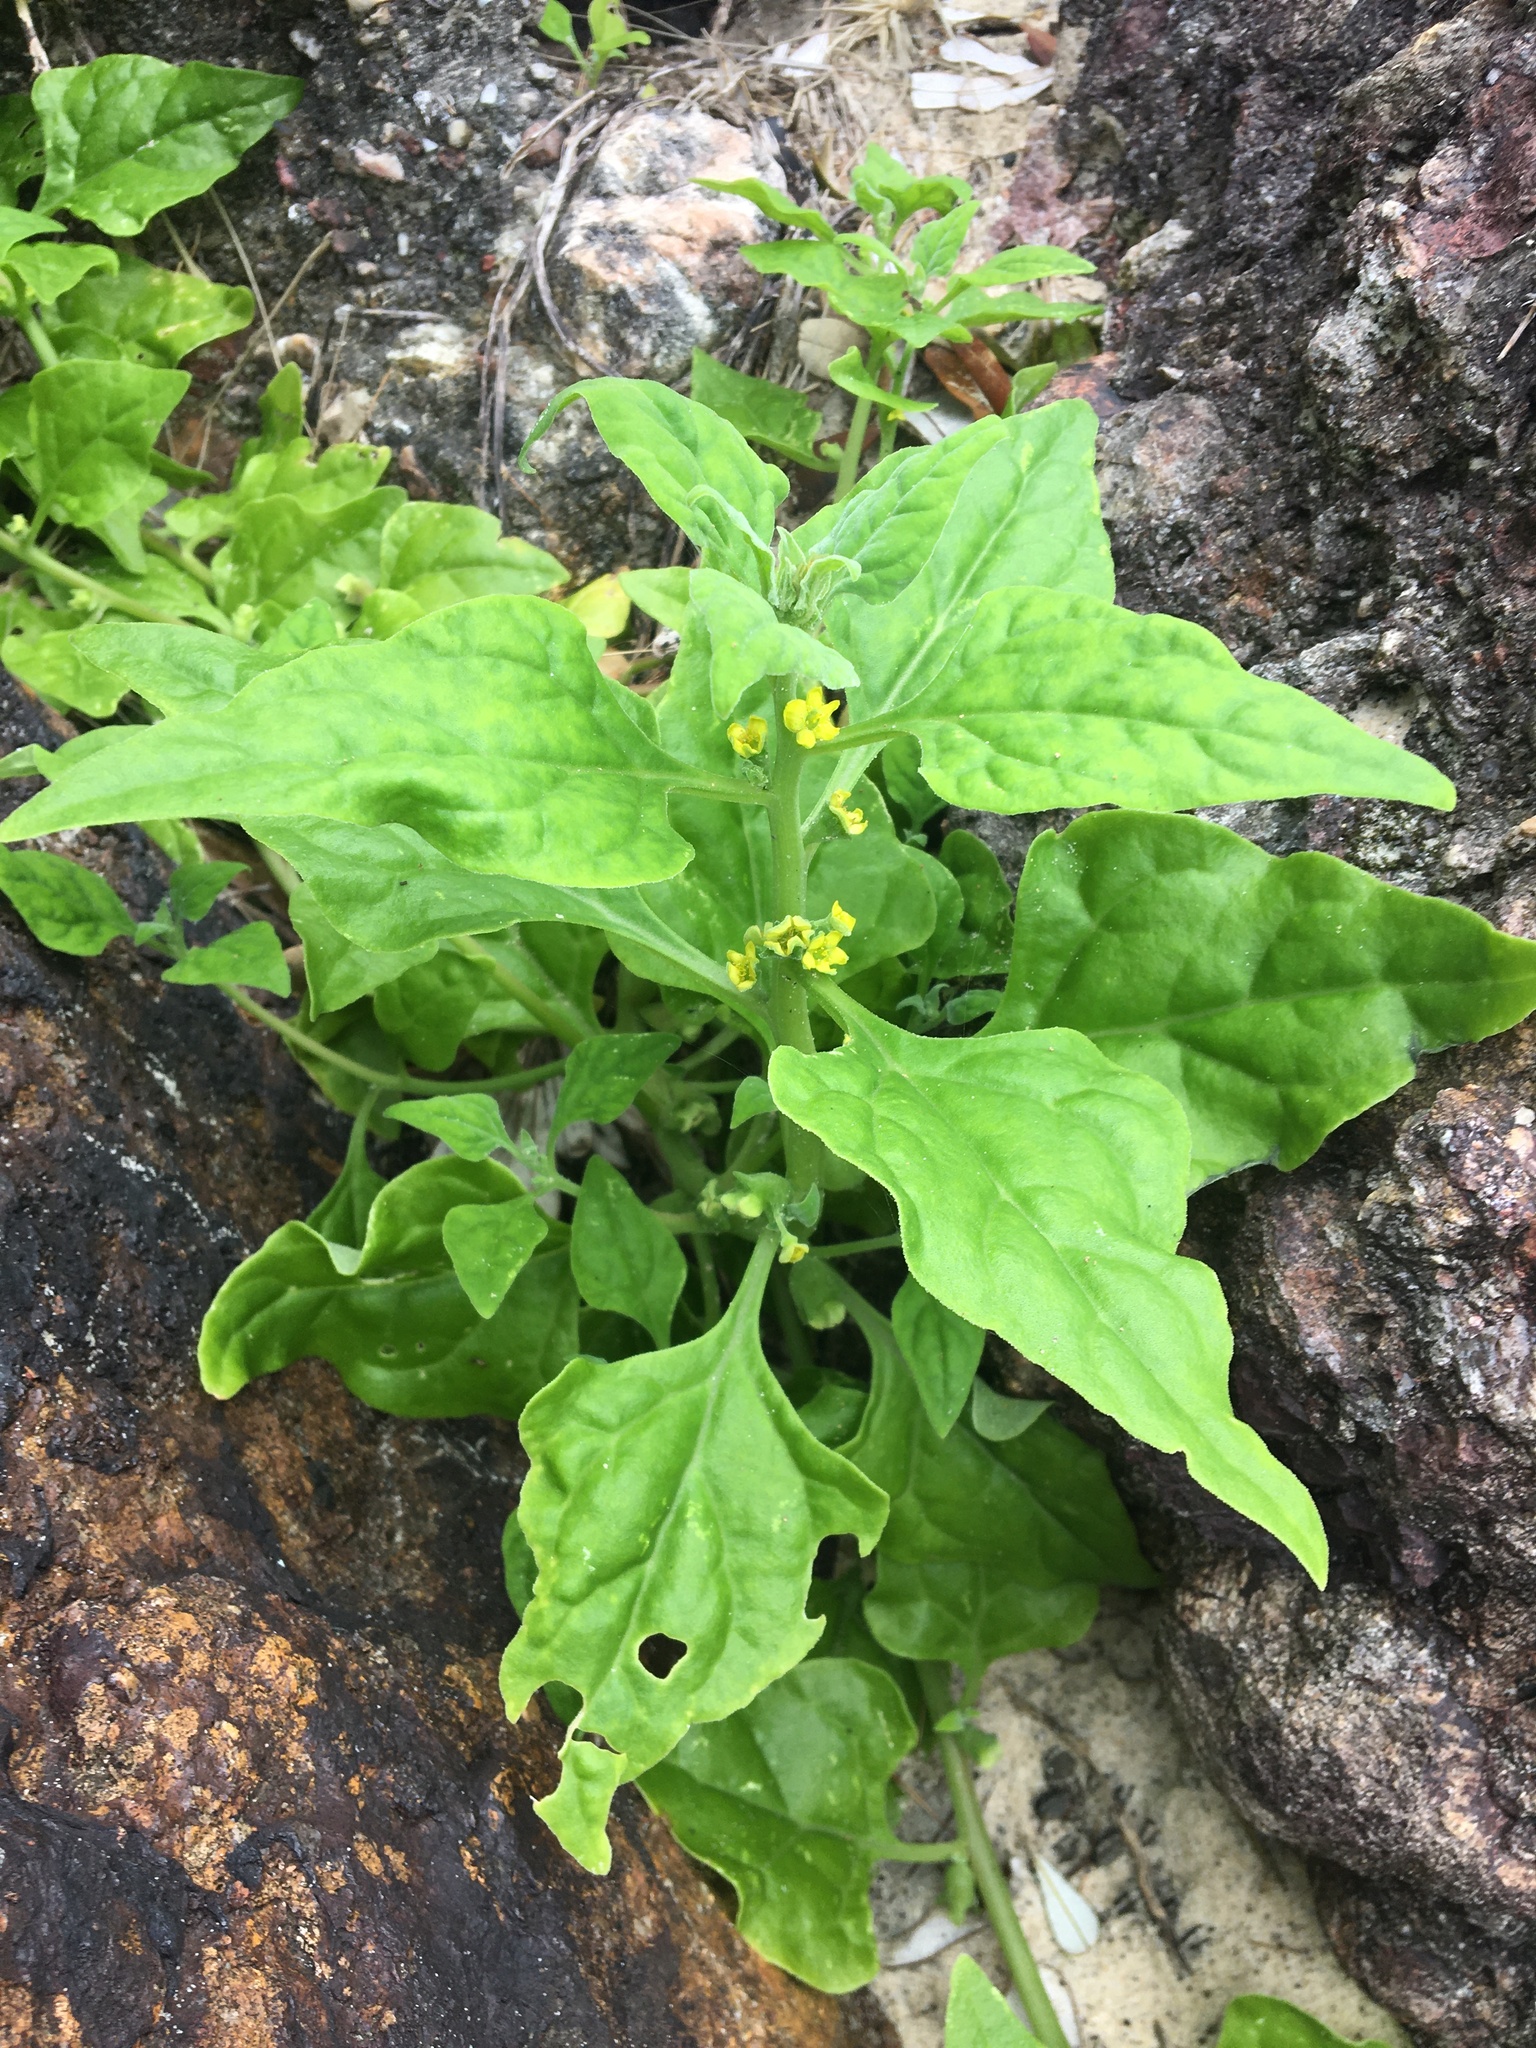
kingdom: Plantae
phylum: Tracheophyta
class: Magnoliopsida
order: Caryophyllales
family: Aizoaceae
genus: Tetragonia
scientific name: Tetragonia tetragonoides
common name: New zealand-spinach
